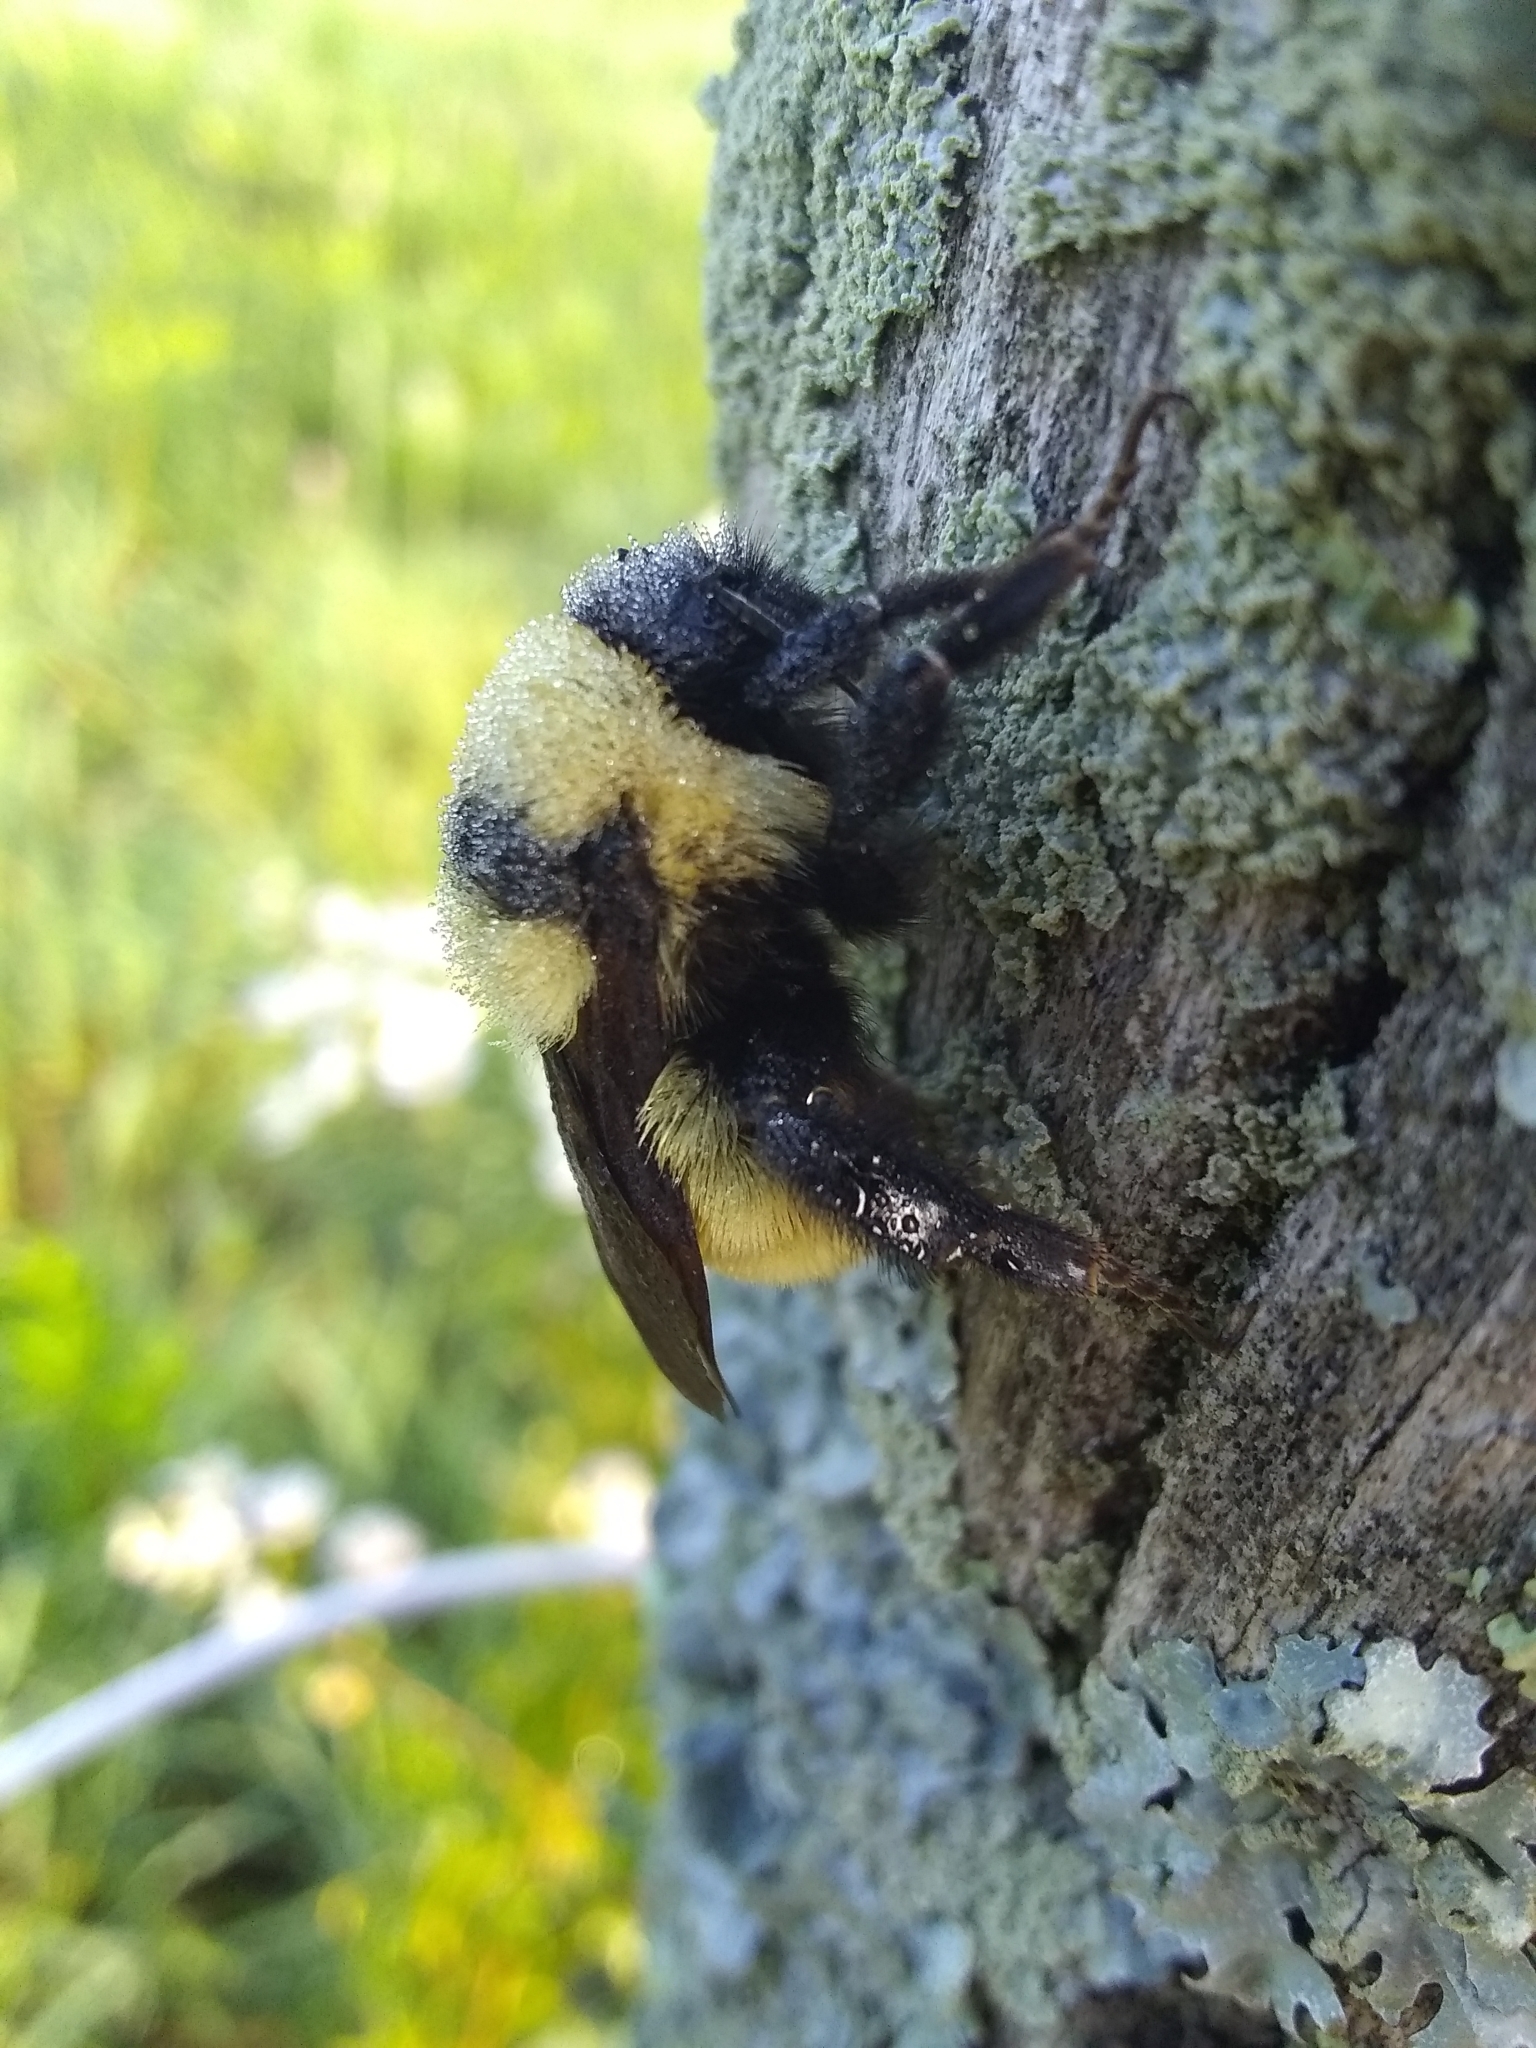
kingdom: Animalia
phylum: Arthropoda
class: Insecta
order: Hymenoptera
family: Apidae
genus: Bombus
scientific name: Bombus fervidus
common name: Yellow bumble bee
